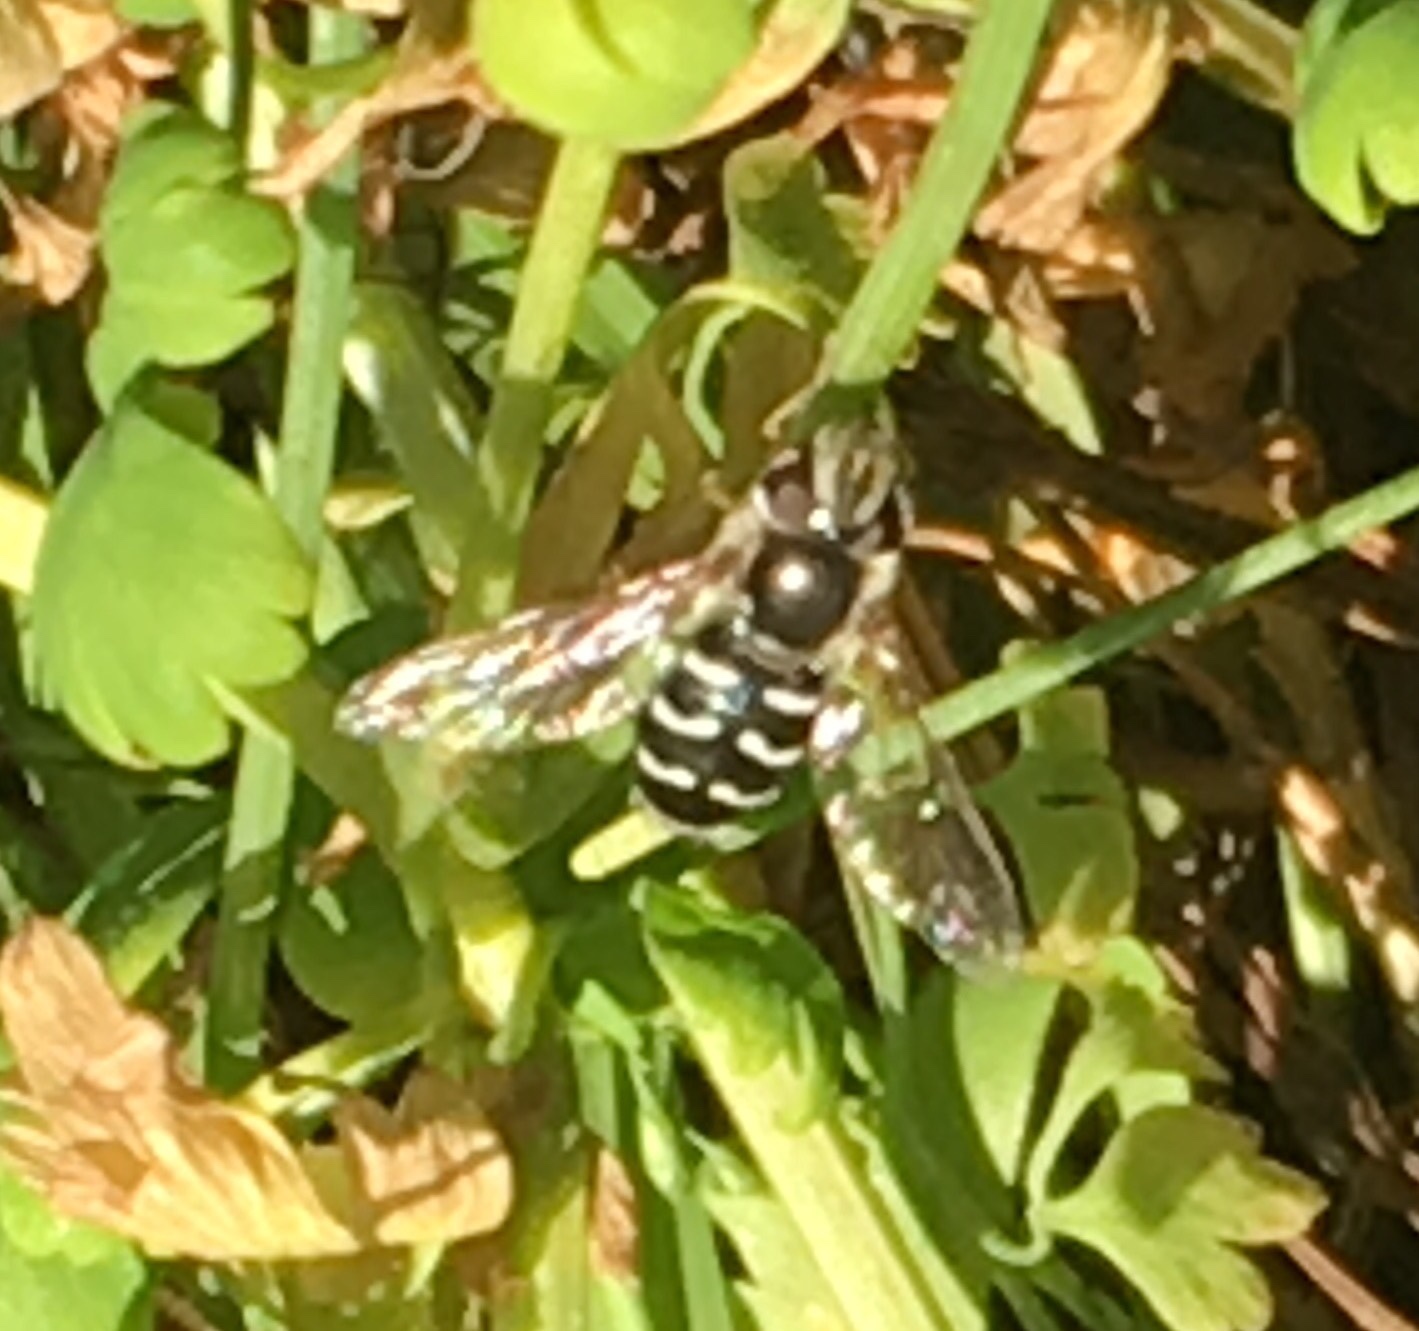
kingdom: Animalia
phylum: Arthropoda
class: Insecta
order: Diptera
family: Syrphidae
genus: Scaeva
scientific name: Scaeva affinis
